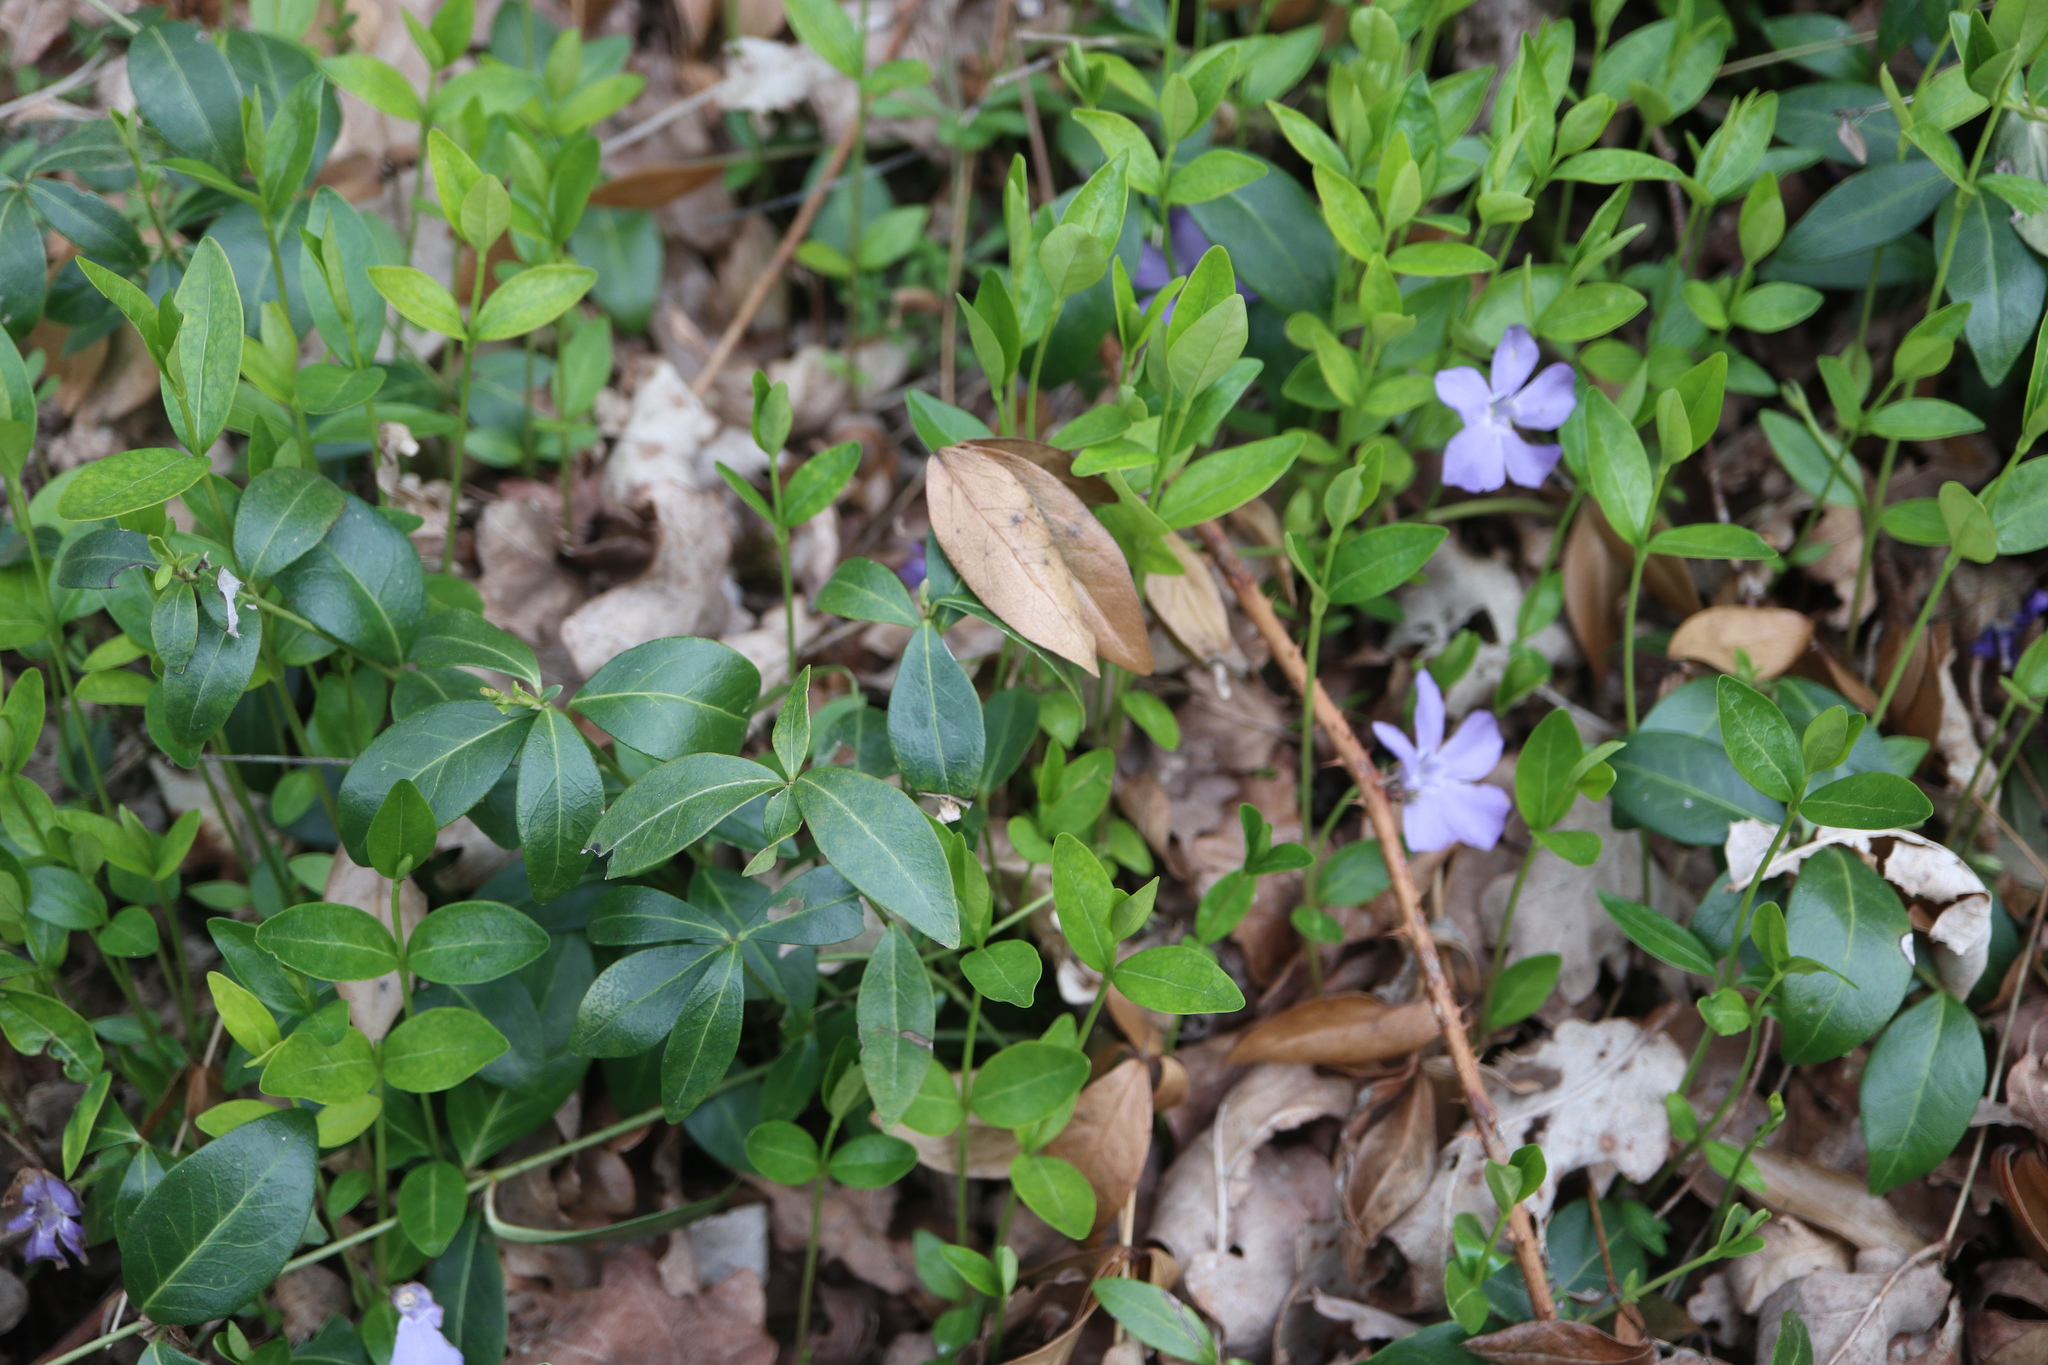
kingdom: Plantae
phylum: Tracheophyta
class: Magnoliopsida
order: Gentianales
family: Apocynaceae
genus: Vinca
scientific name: Vinca minor
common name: Lesser periwinkle
